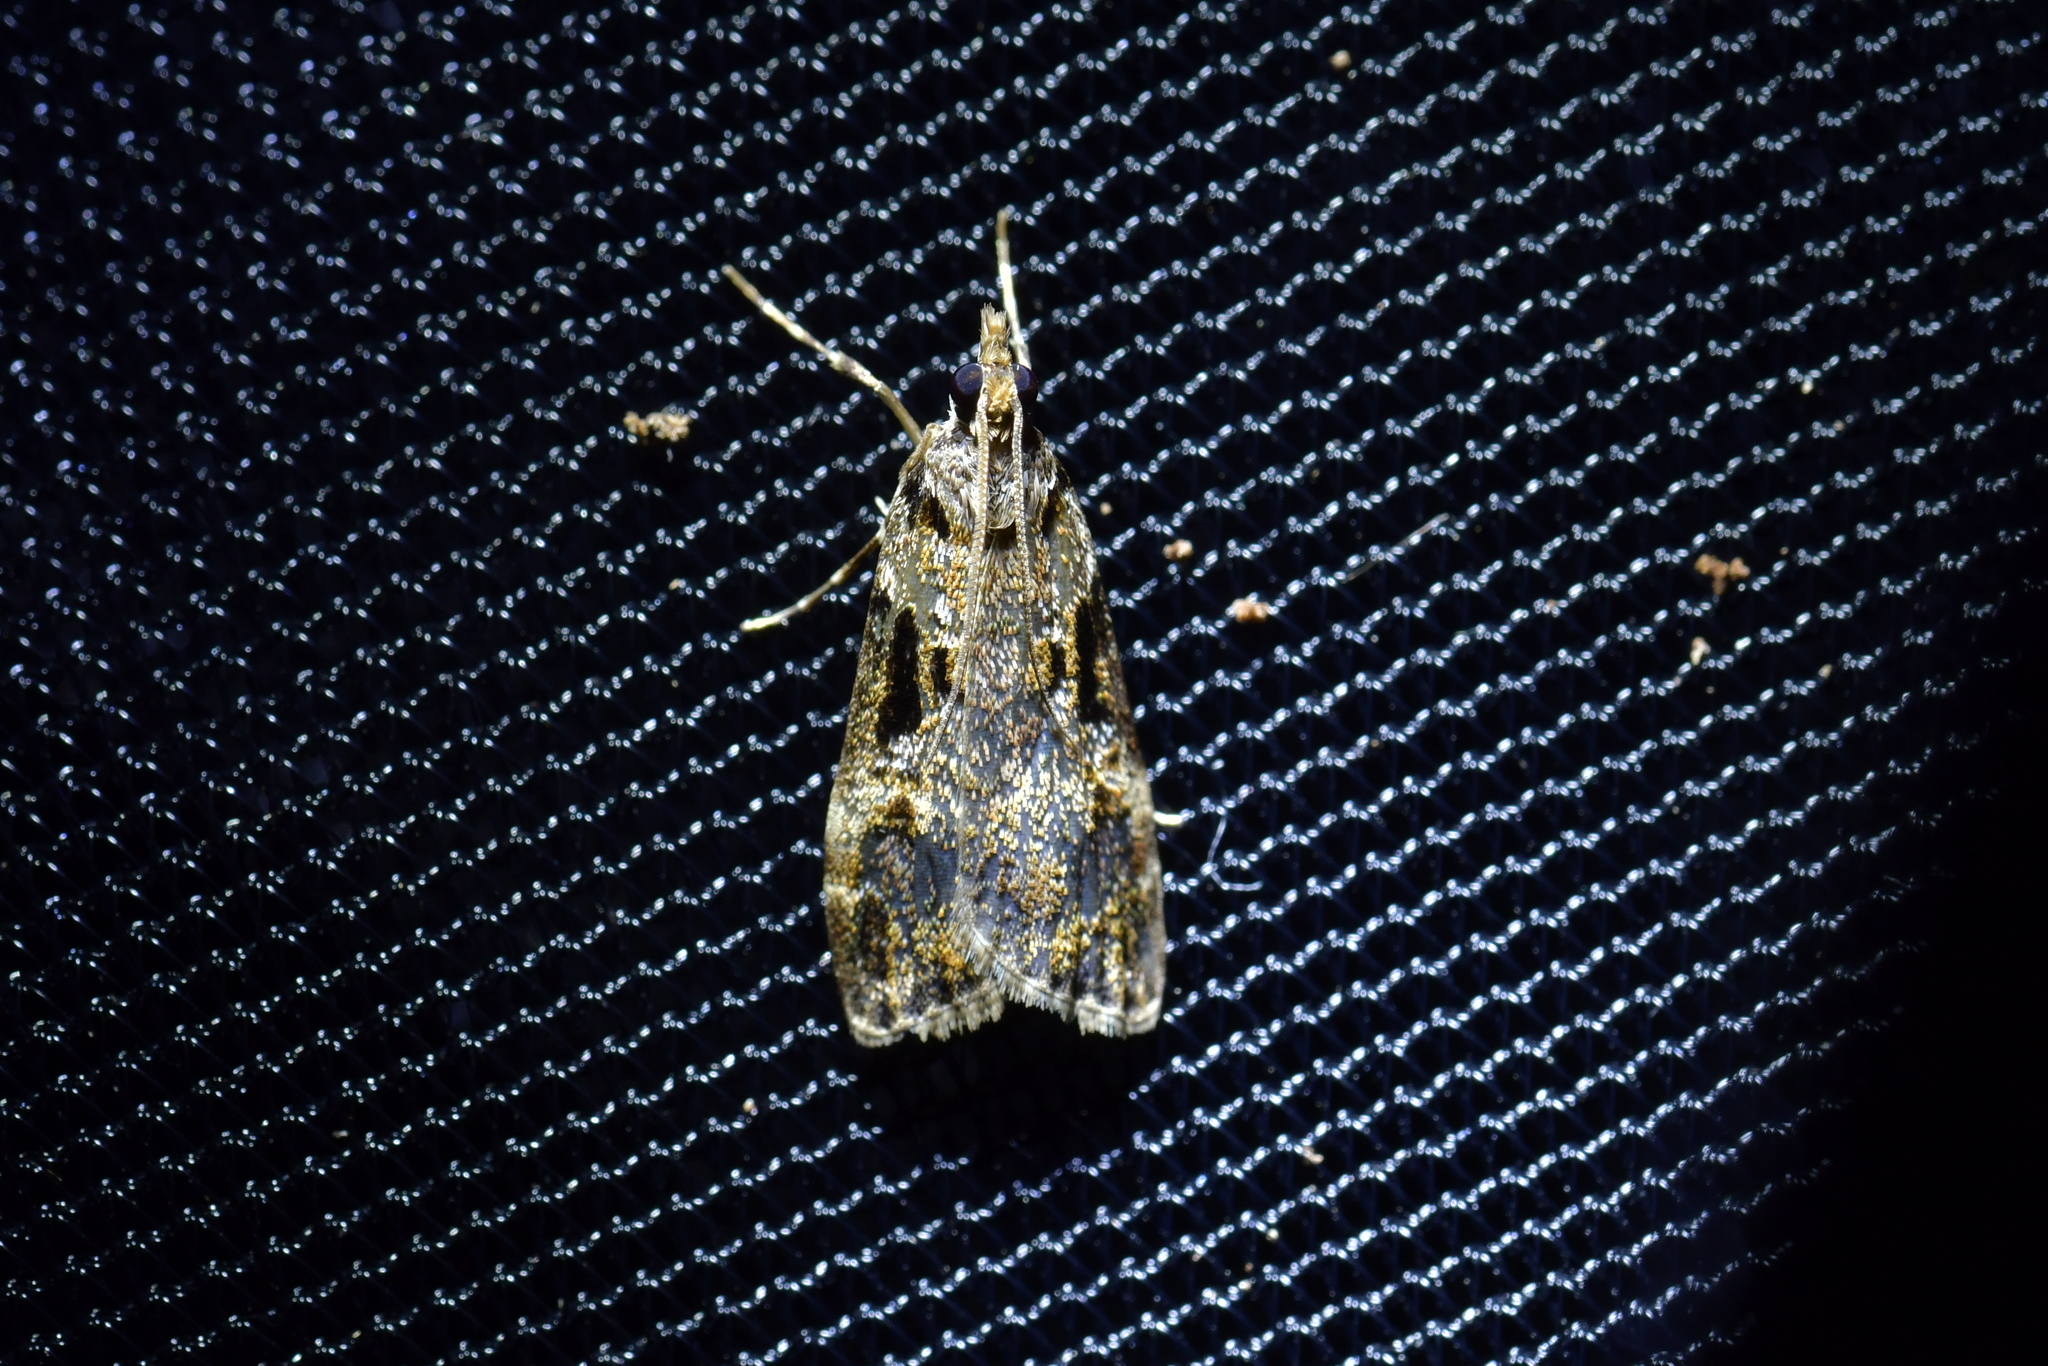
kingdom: Animalia
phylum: Arthropoda
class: Insecta
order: Lepidoptera
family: Crambidae
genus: Scoparia
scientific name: Scoparia acharis
